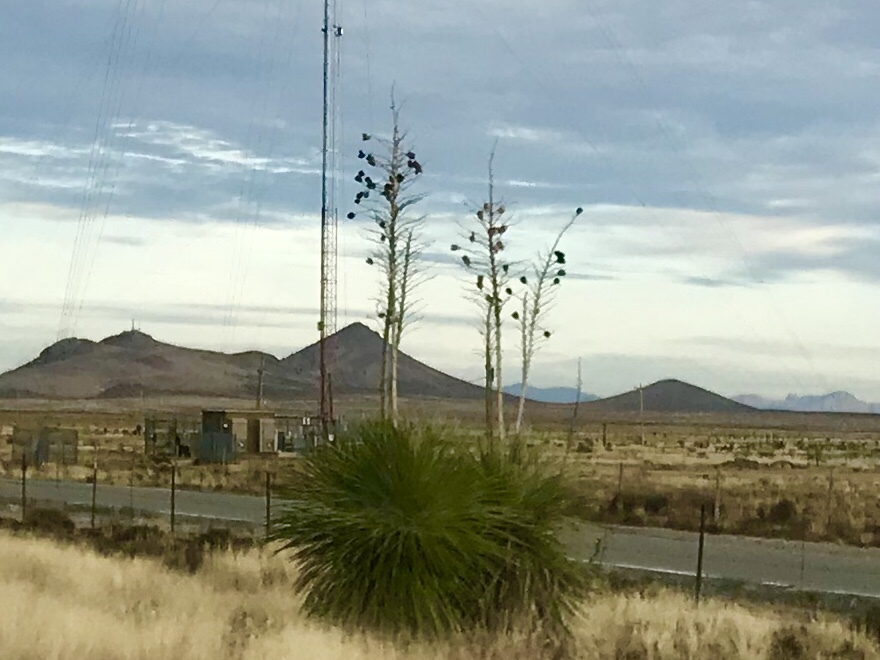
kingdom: Plantae
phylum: Tracheophyta
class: Liliopsida
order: Asparagales
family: Asparagaceae
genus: Yucca
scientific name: Yucca elata
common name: Palmella
